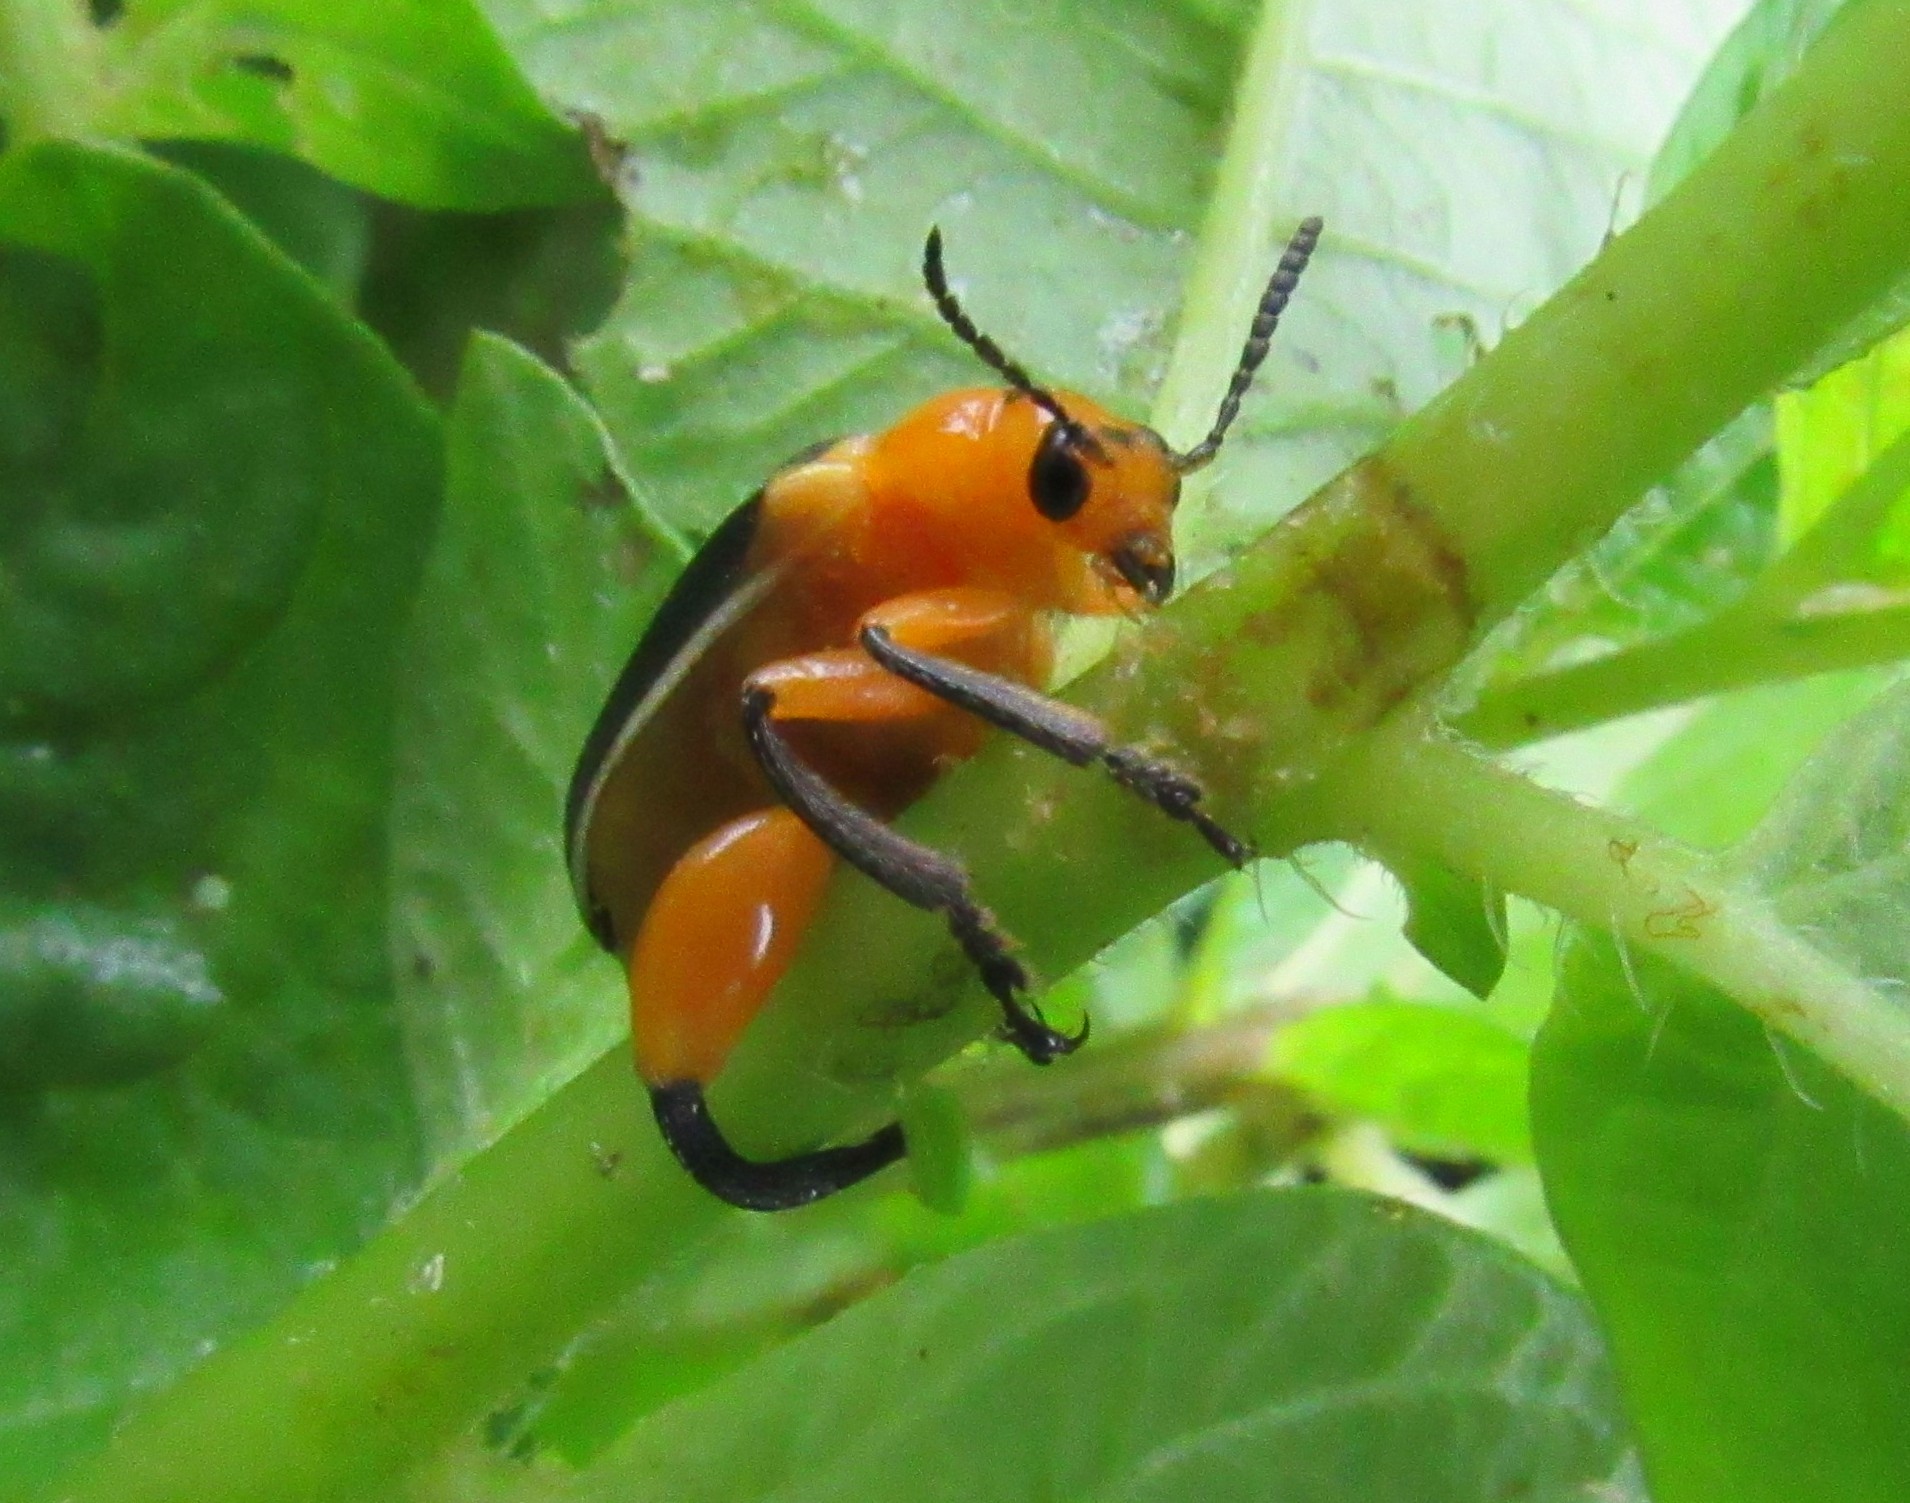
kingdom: Animalia
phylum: Arthropoda
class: Insecta
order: Coleoptera
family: Megalopodidae
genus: Agathomerus
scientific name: Agathomerus sellatus
